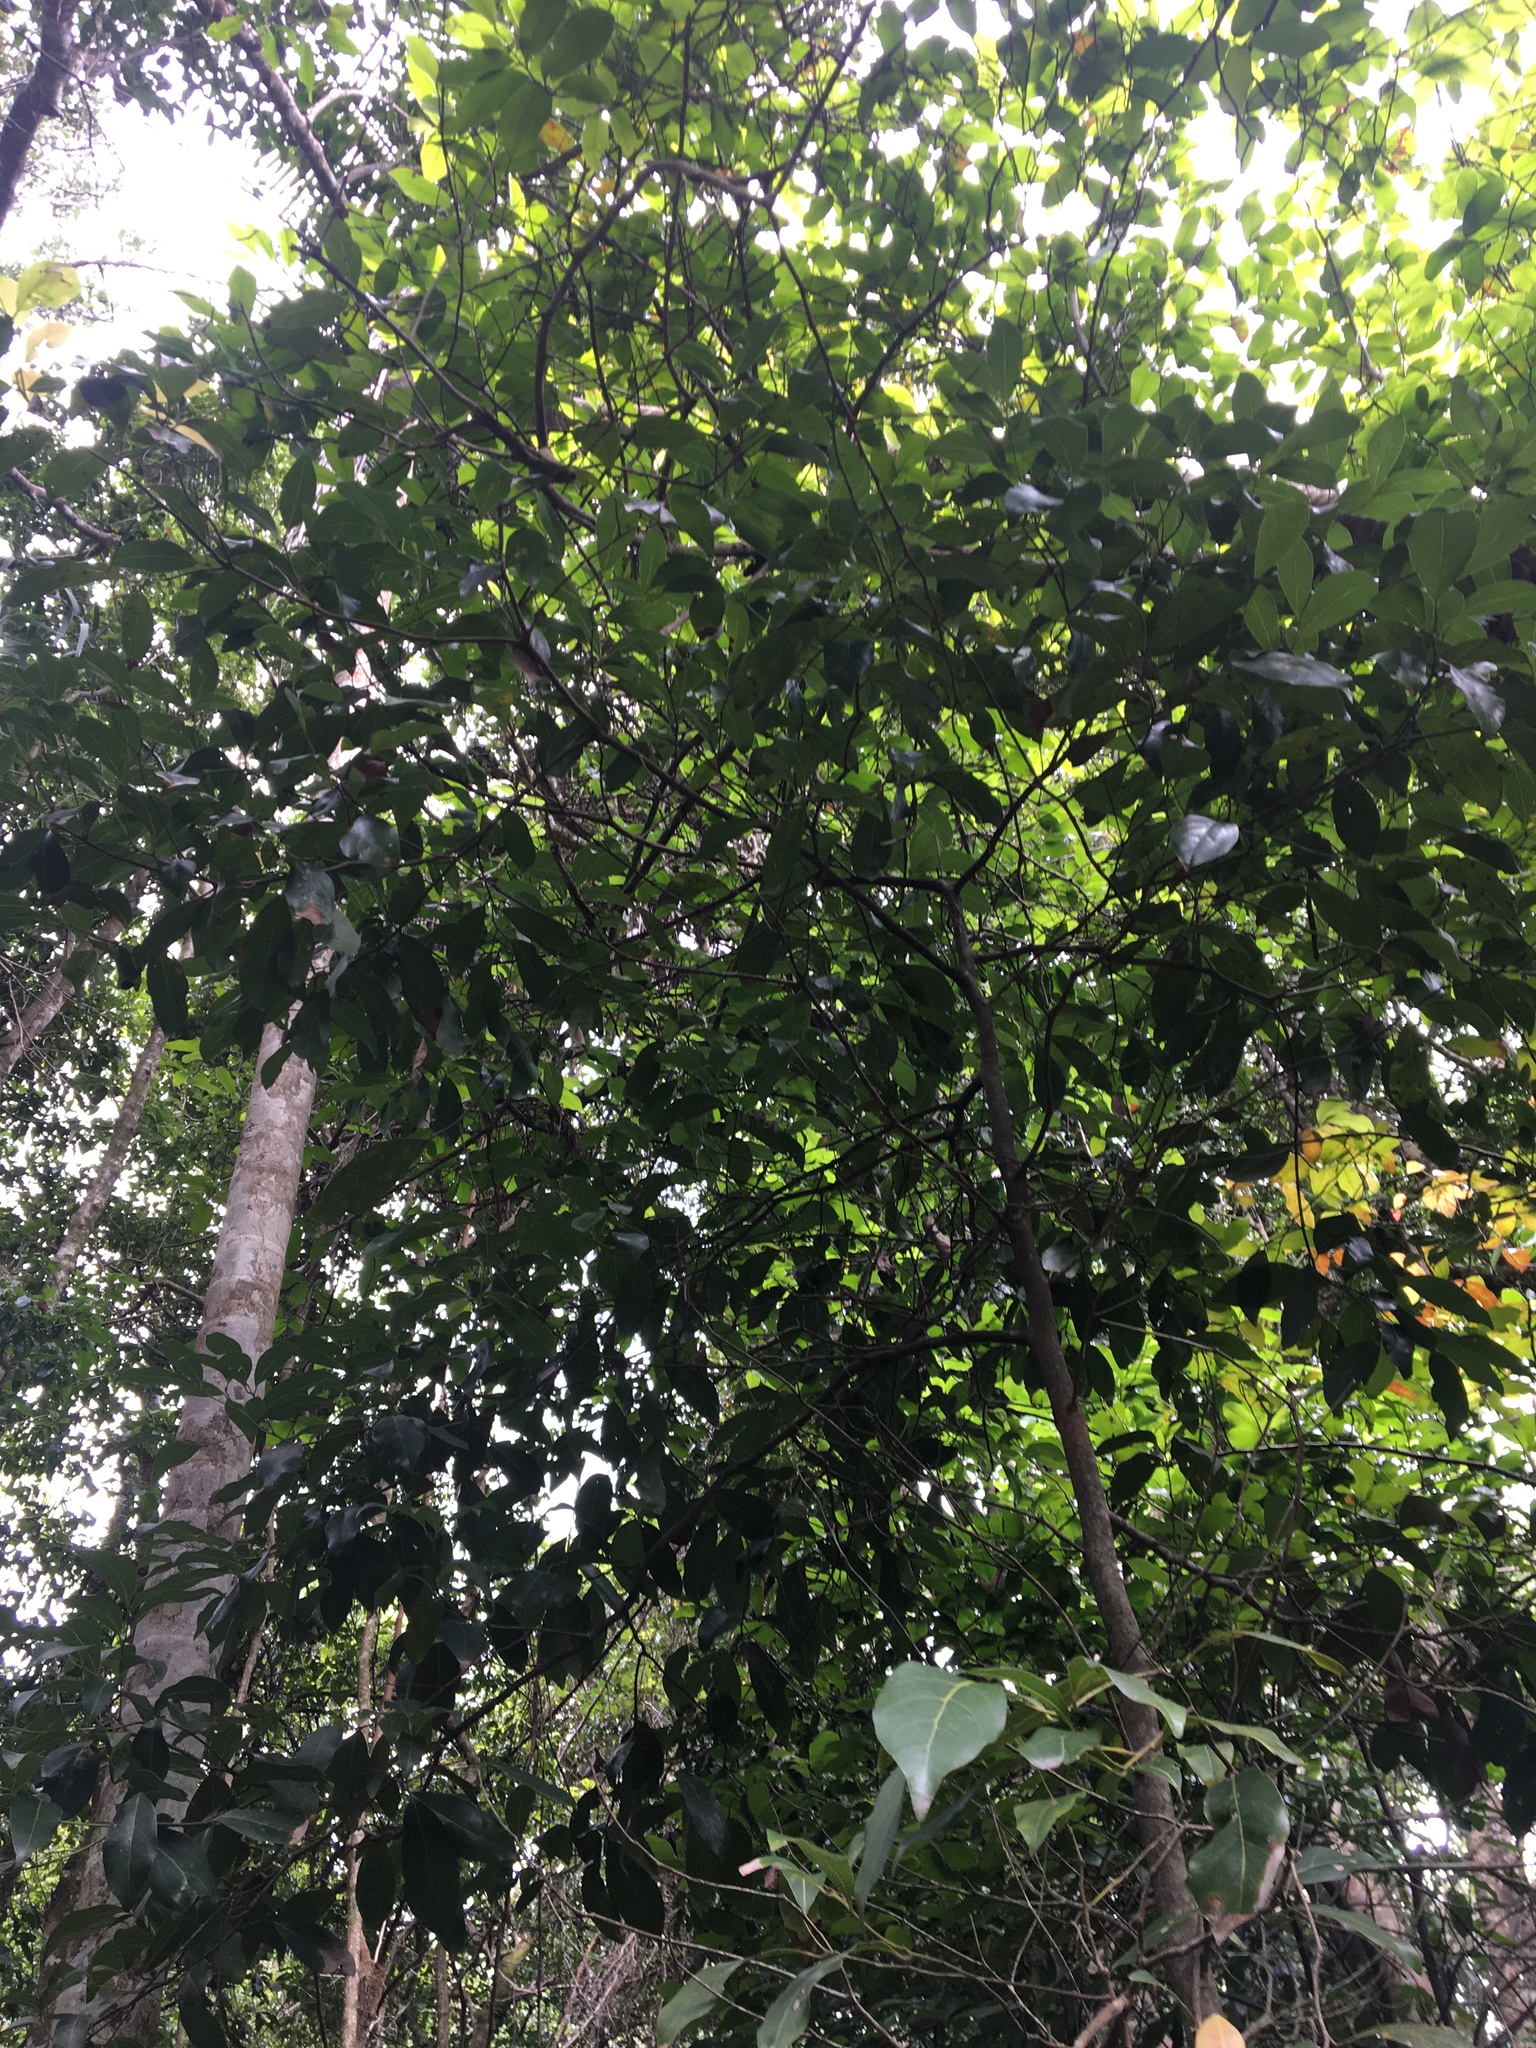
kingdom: Plantae
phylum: Tracheophyta
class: Magnoliopsida
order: Laurales
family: Lauraceae
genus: Endiandra
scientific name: Endiandra discolor
